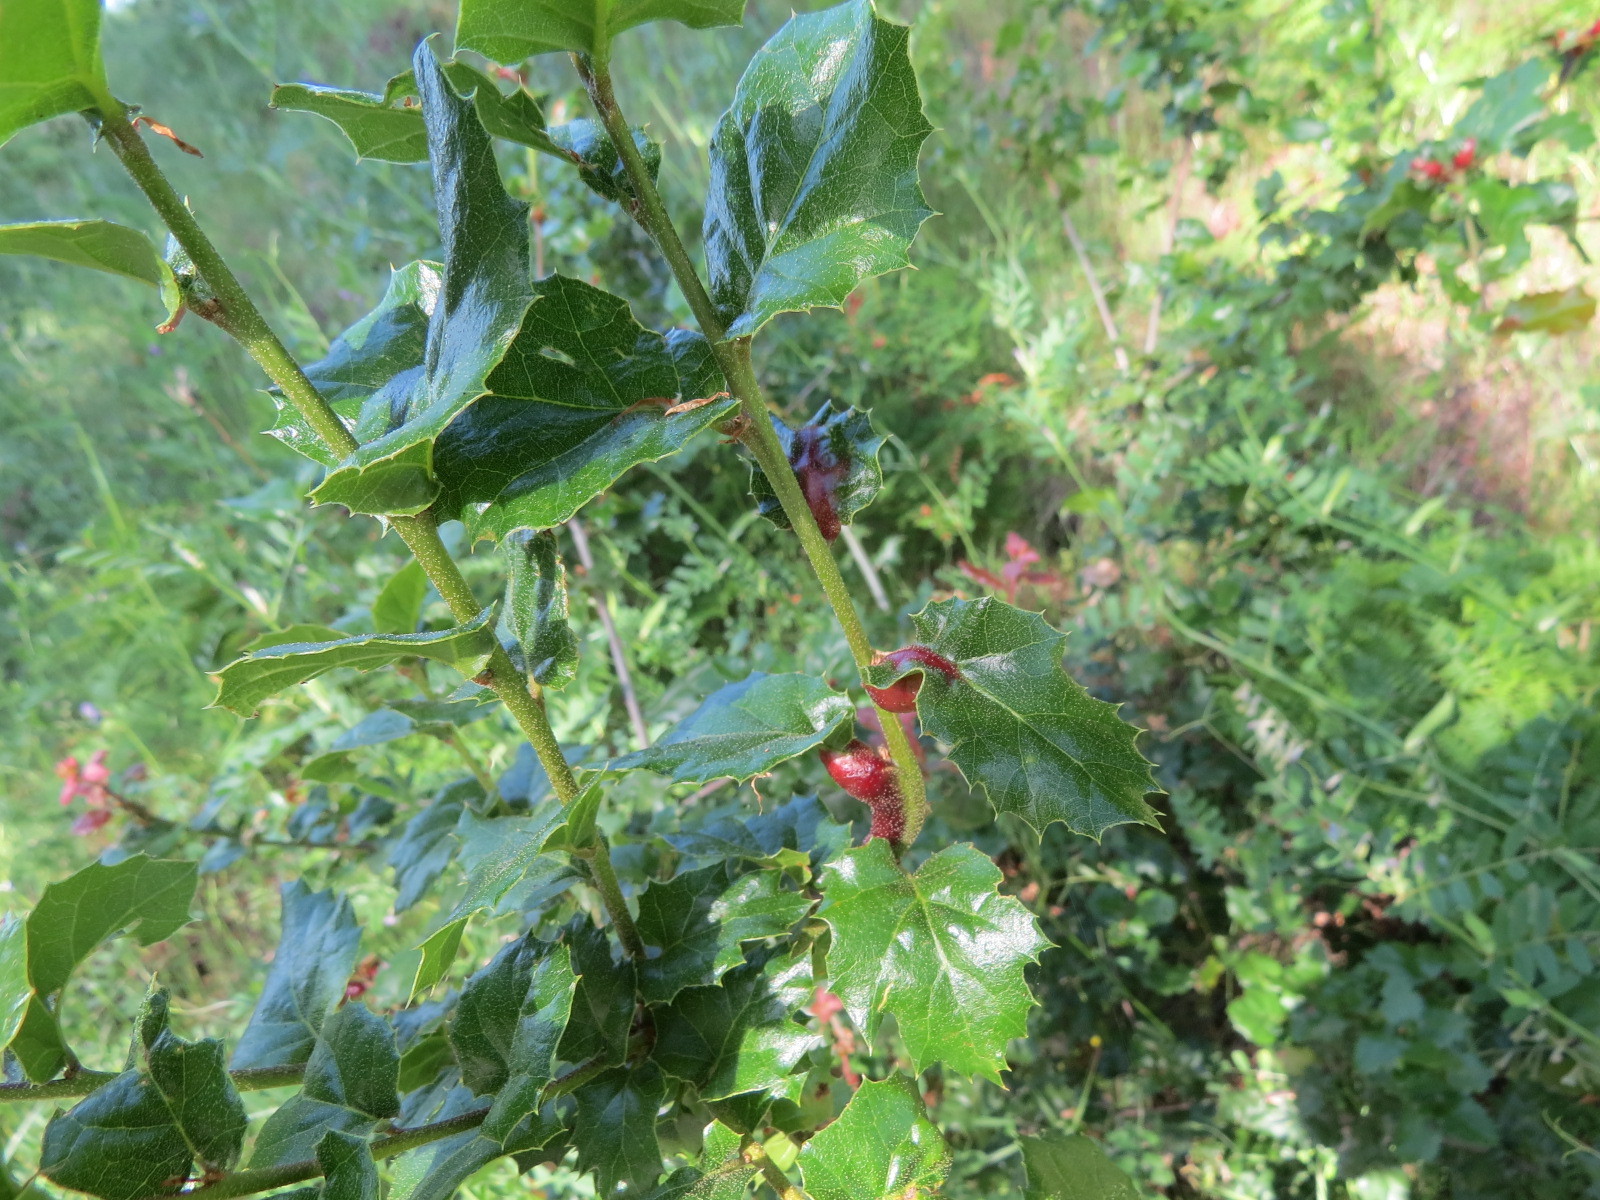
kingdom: Animalia
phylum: Arthropoda
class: Insecta
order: Hymenoptera
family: Cynipidae
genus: Melikaiella
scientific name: Melikaiella
